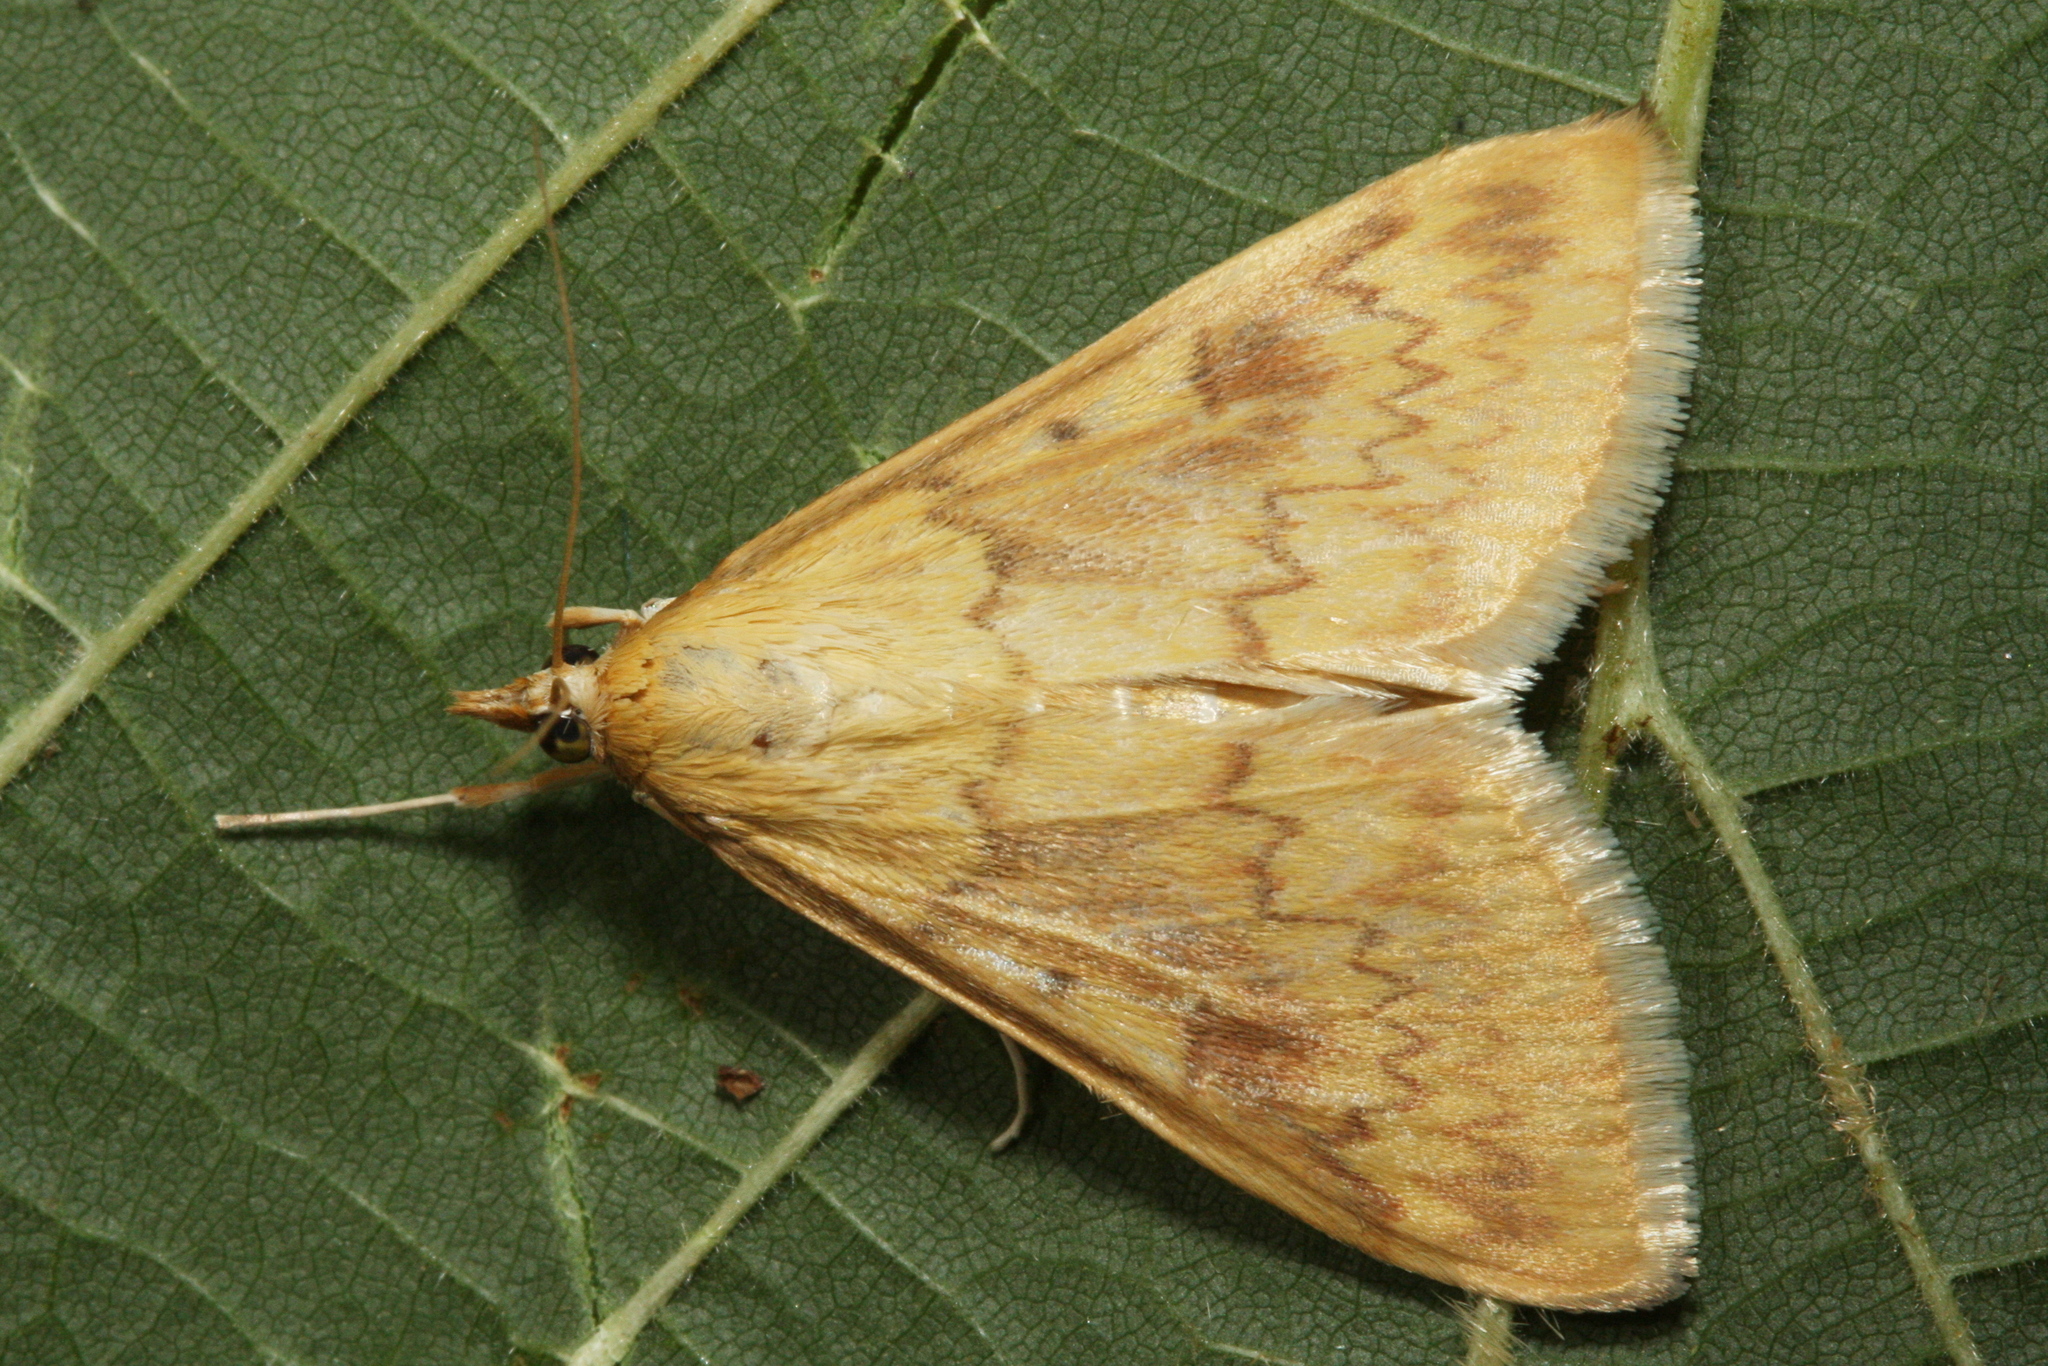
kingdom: Animalia
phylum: Arthropoda
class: Insecta
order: Lepidoptera
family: Crambidae
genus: Ostrinia
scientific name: Ostrinia nubilalis
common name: European corn borer
